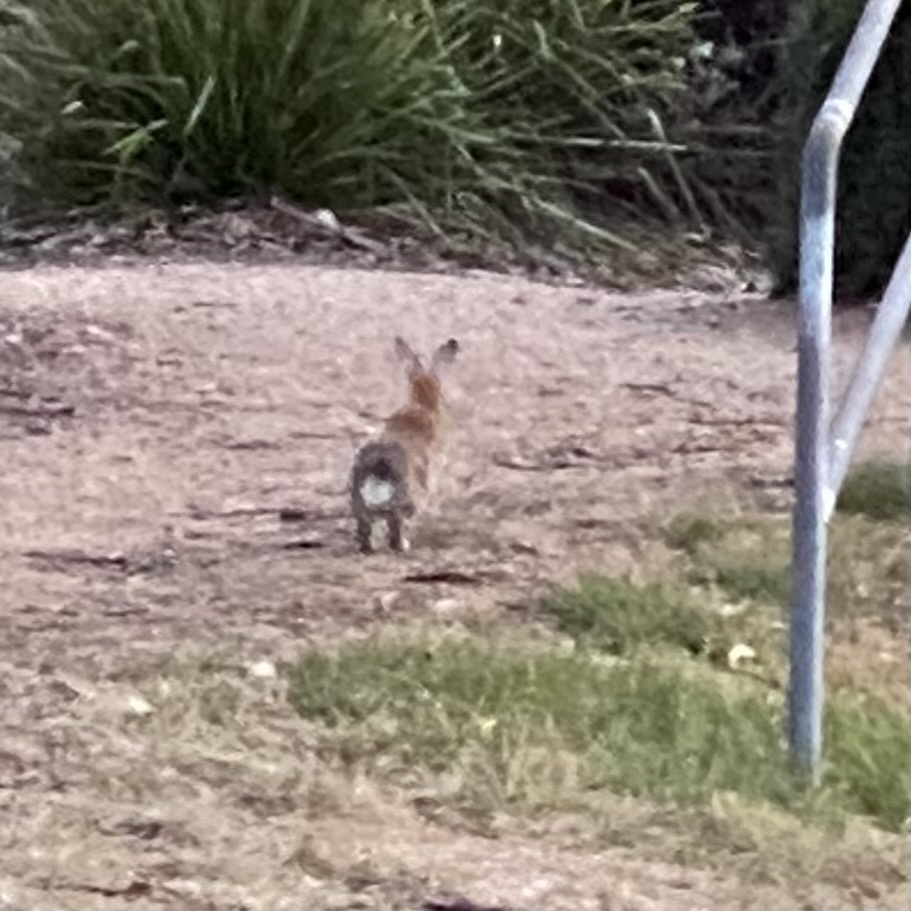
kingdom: Animalia
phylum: Chordata
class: Mammalia
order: Lagomorpha
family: Leporidae
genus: Oryctolagus
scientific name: Oryctolagus cuniculus
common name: European rabbit
